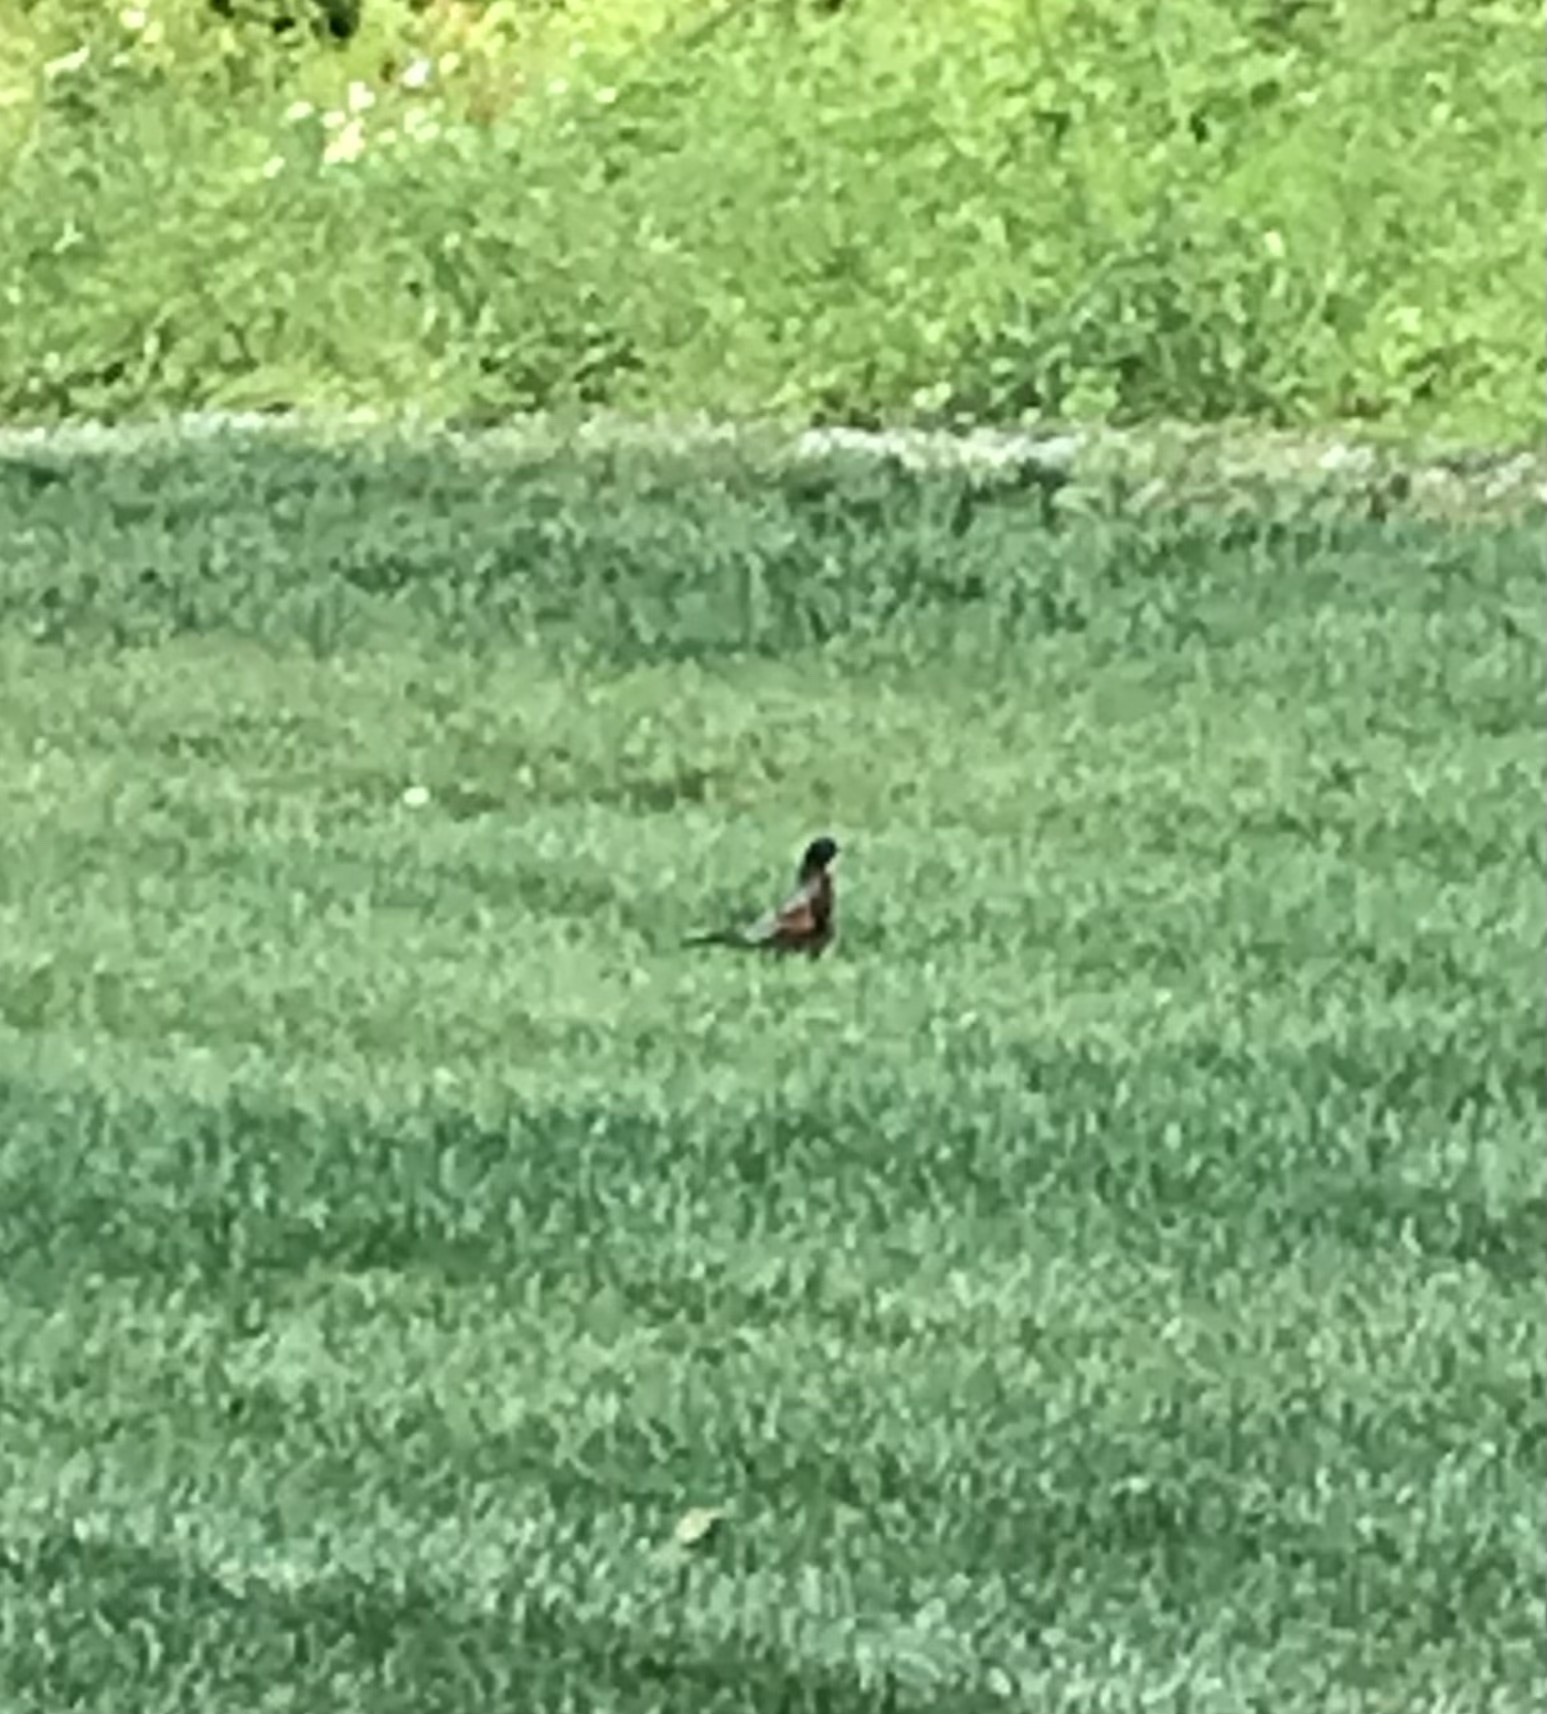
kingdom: Animalia
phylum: Chordata
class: Aves
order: Passeriformes
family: Turdidae
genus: Turdus
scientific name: Turdus migratorius
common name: American robin
